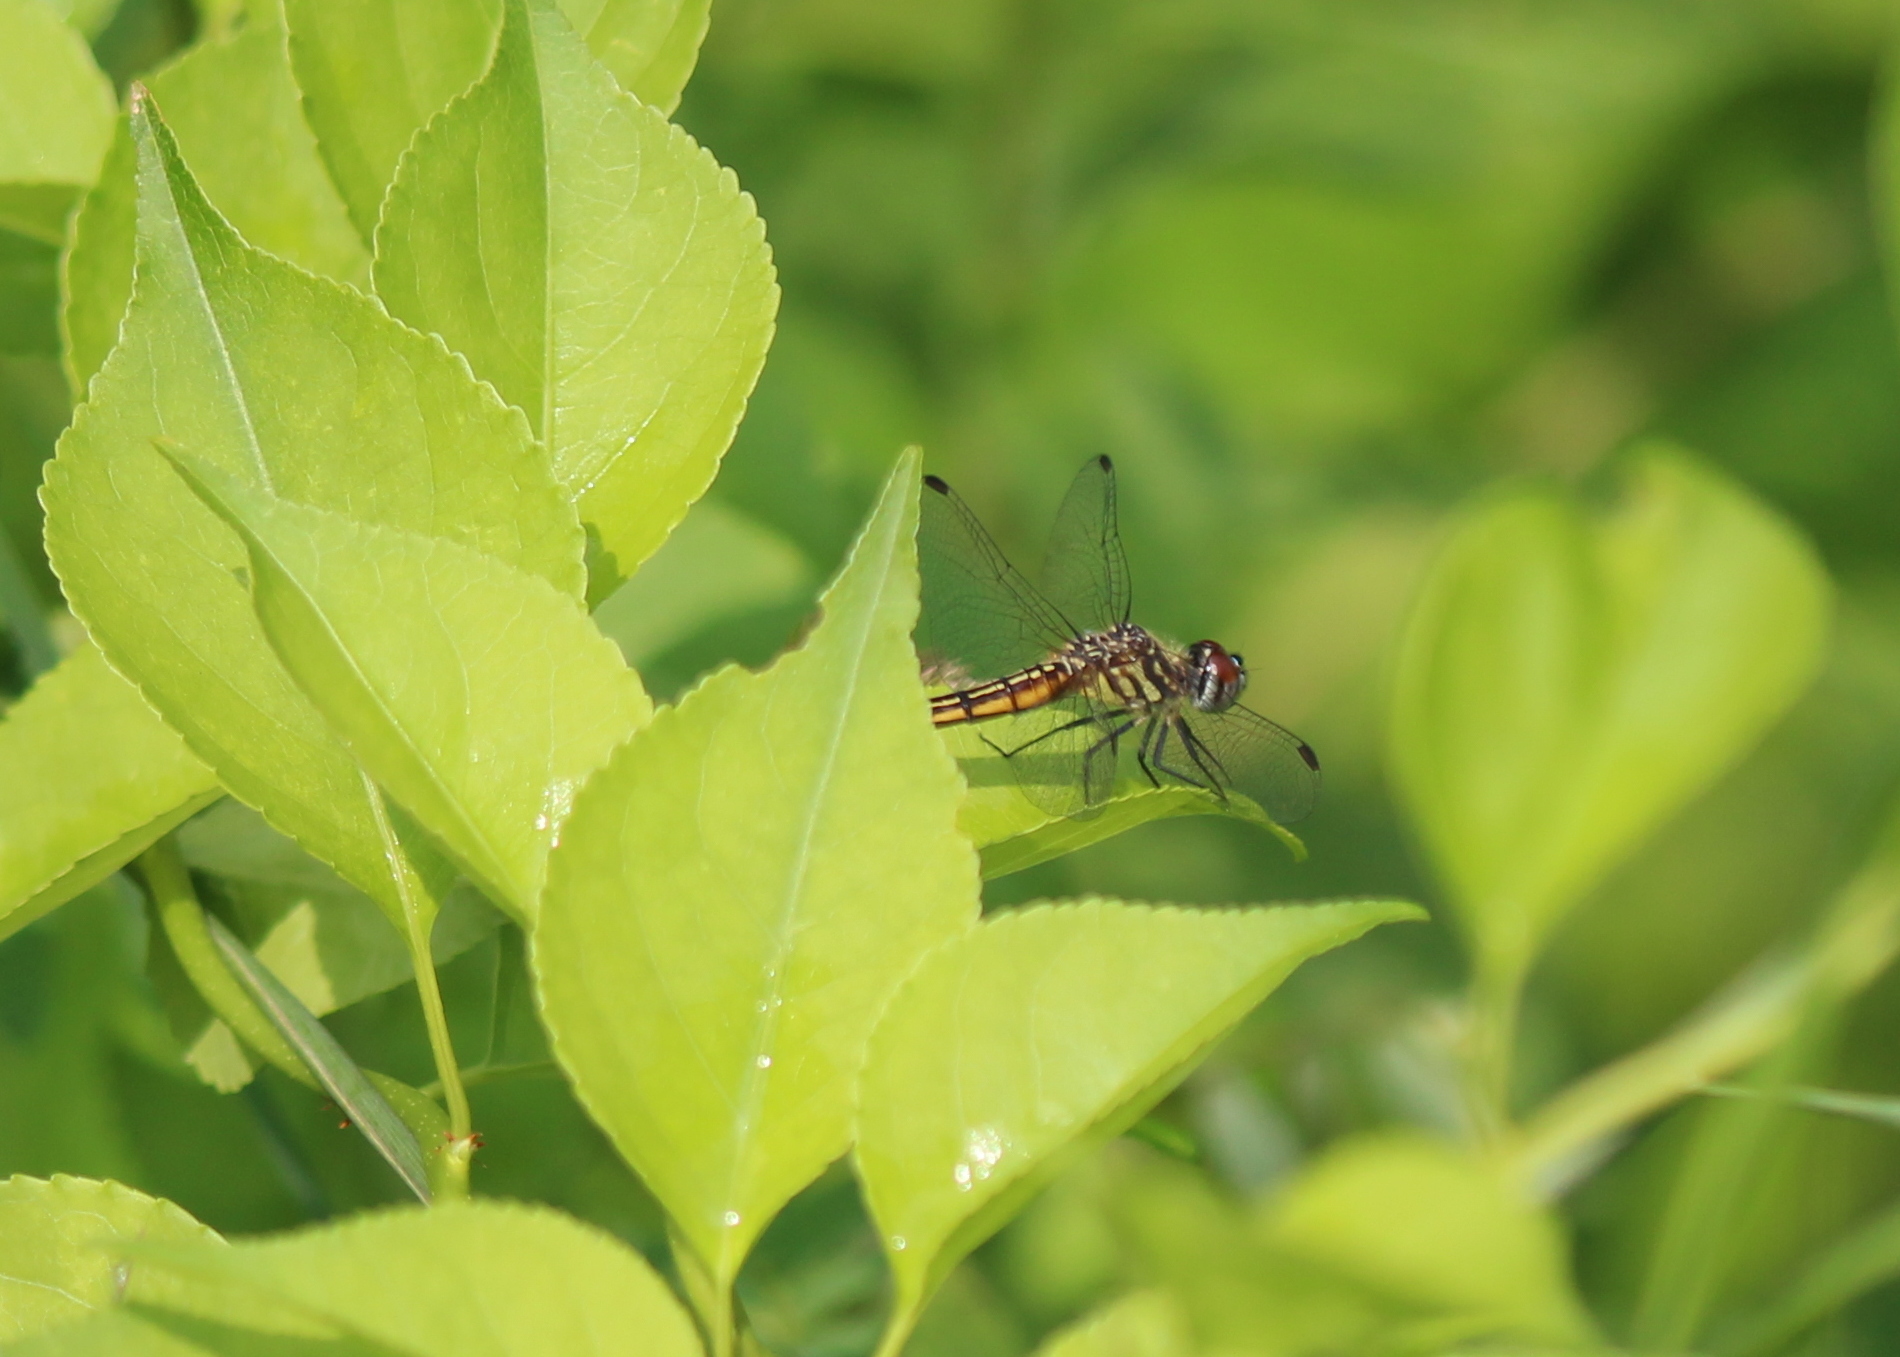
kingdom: Animalia
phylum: Arthropoda
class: Insecta
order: Odonata
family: Libellulidae
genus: Pachydiplax
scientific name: Pachydiplax longipennis
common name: Blue dasher
